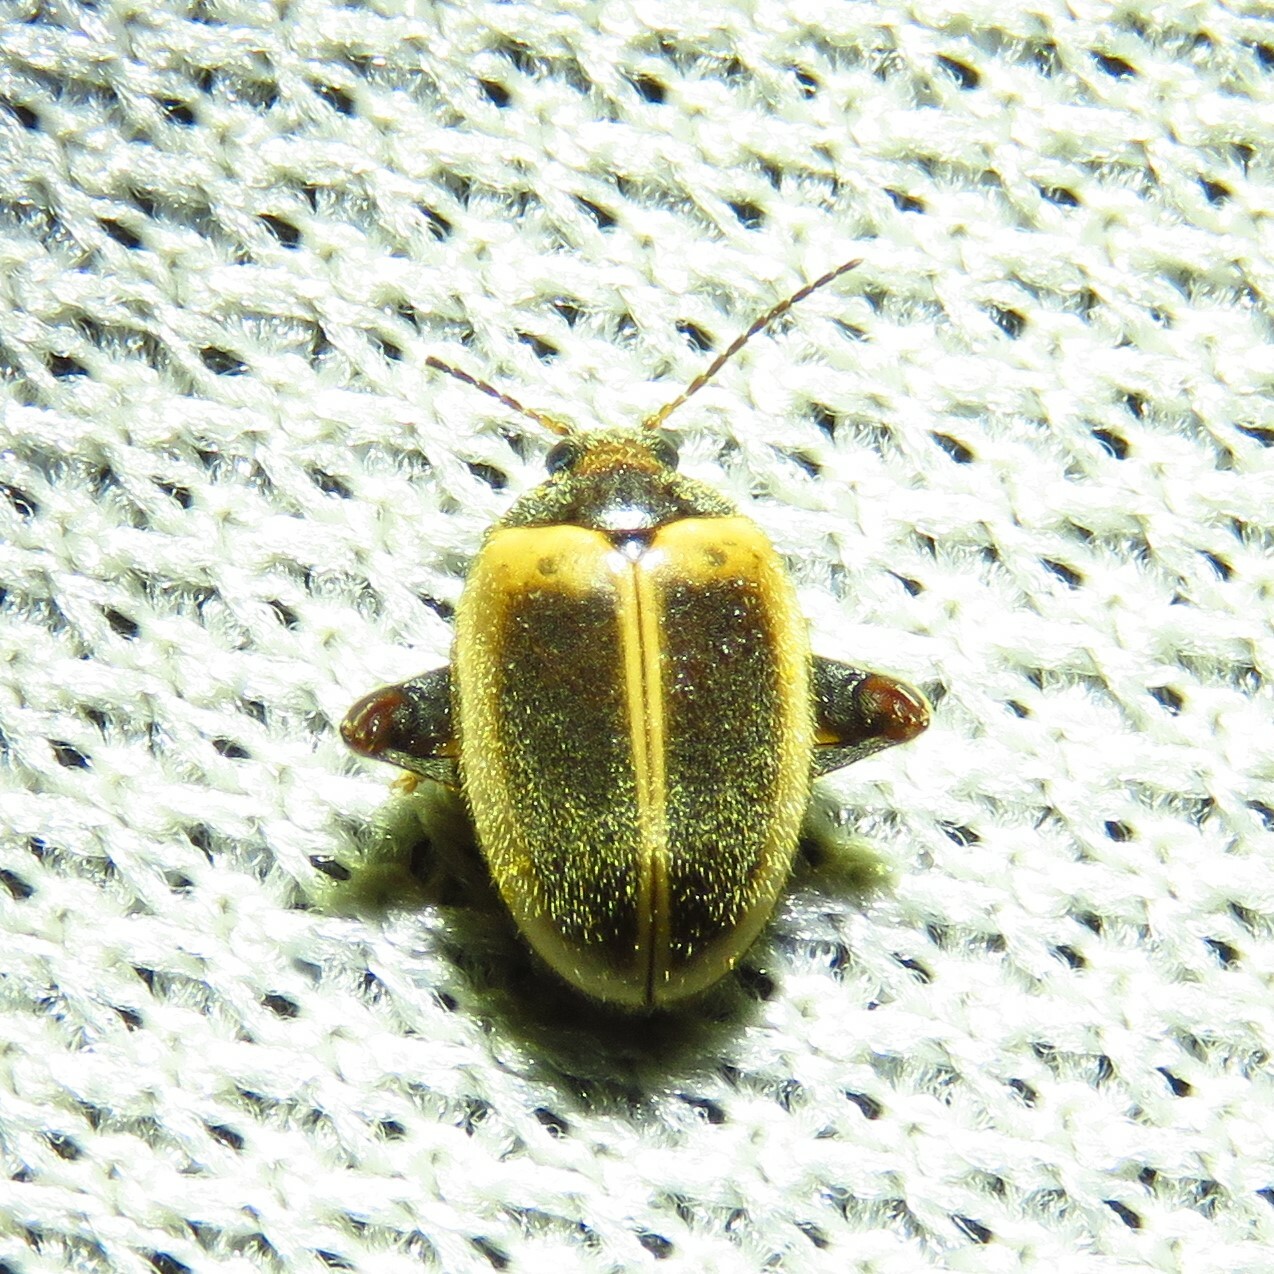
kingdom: Animalia
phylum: Arthropoda
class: Insecta
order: Coleoptera
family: Scirtidae
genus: Ora
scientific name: Ora discoidea
